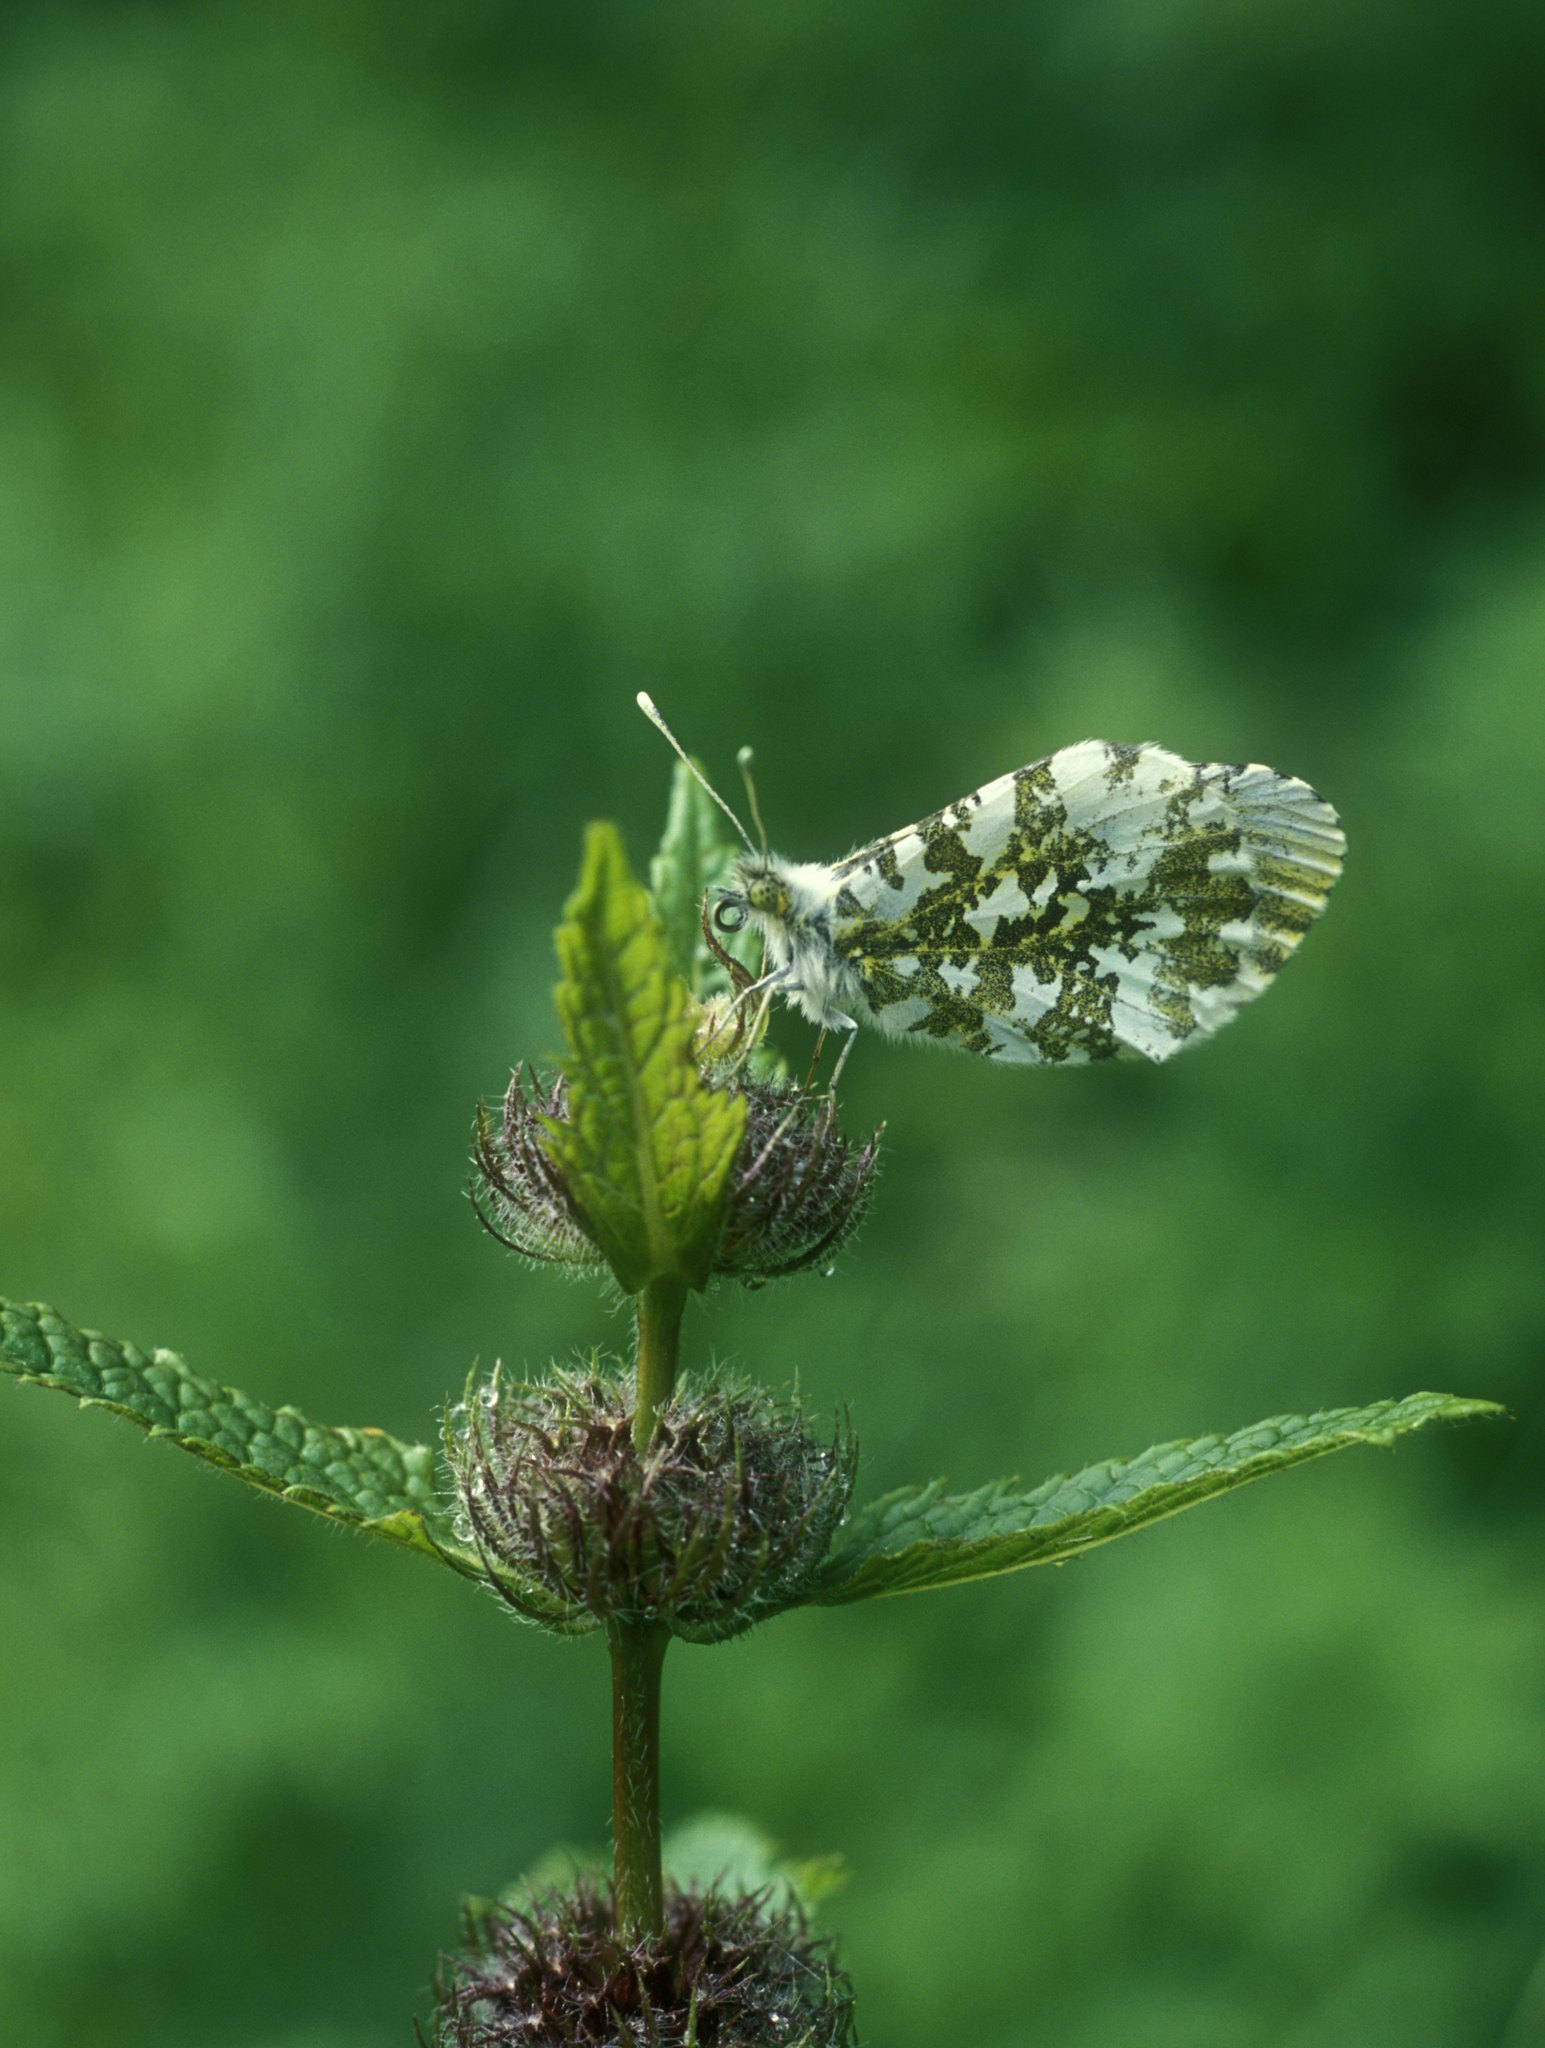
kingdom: Animalia
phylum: Arthropoda
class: Insecta
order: Lepidoptera
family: Pieridae
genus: Anthocharis
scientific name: Anthocharis cardamines
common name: Orange-tip
